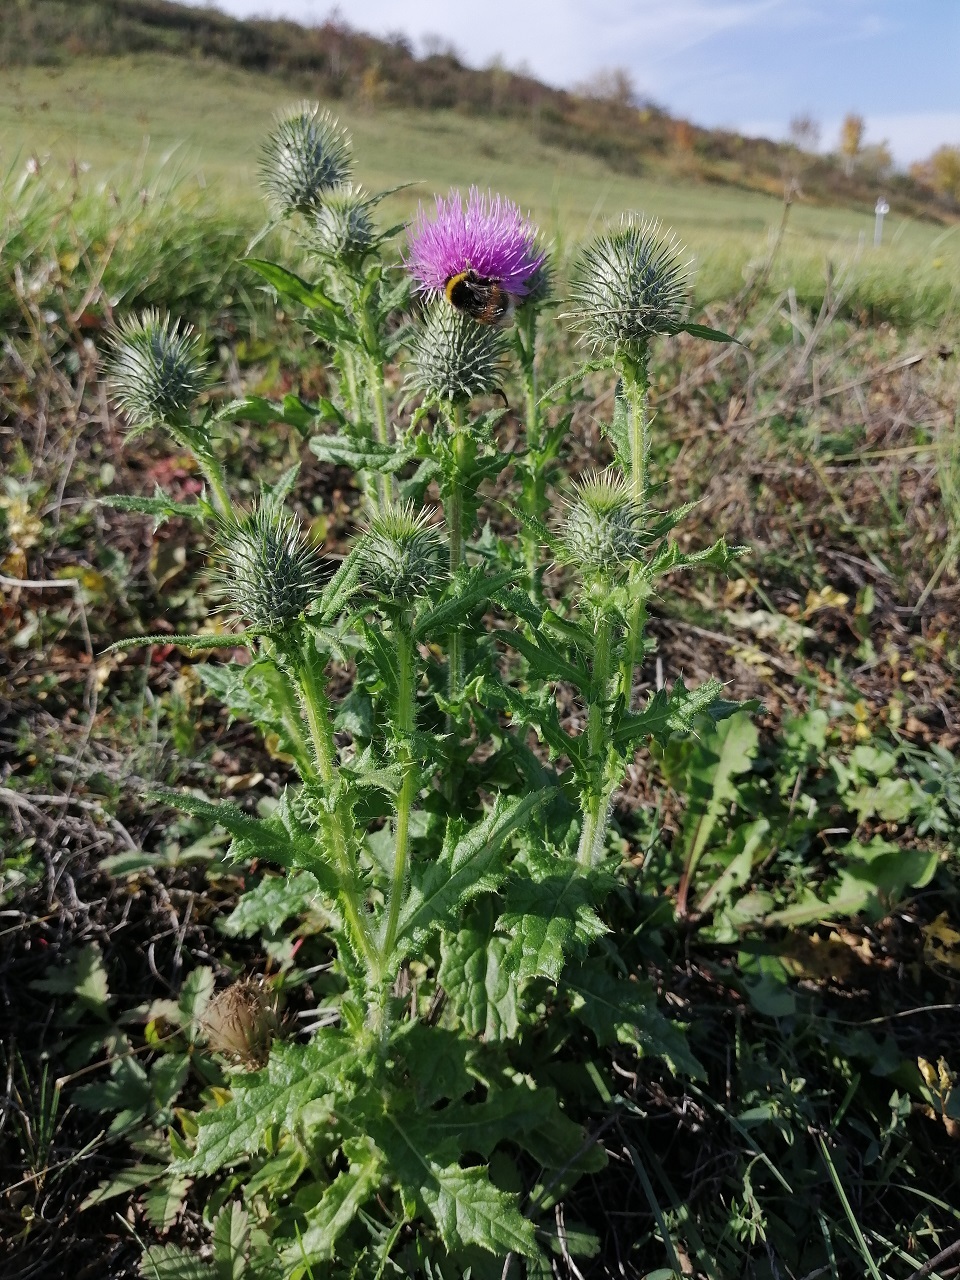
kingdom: Plantae
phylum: Tracheophyta
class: Magnoliopsida
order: Asterales
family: Asteraceae
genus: Cirsium
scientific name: Cirsium vulgare
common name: Bull thistle
